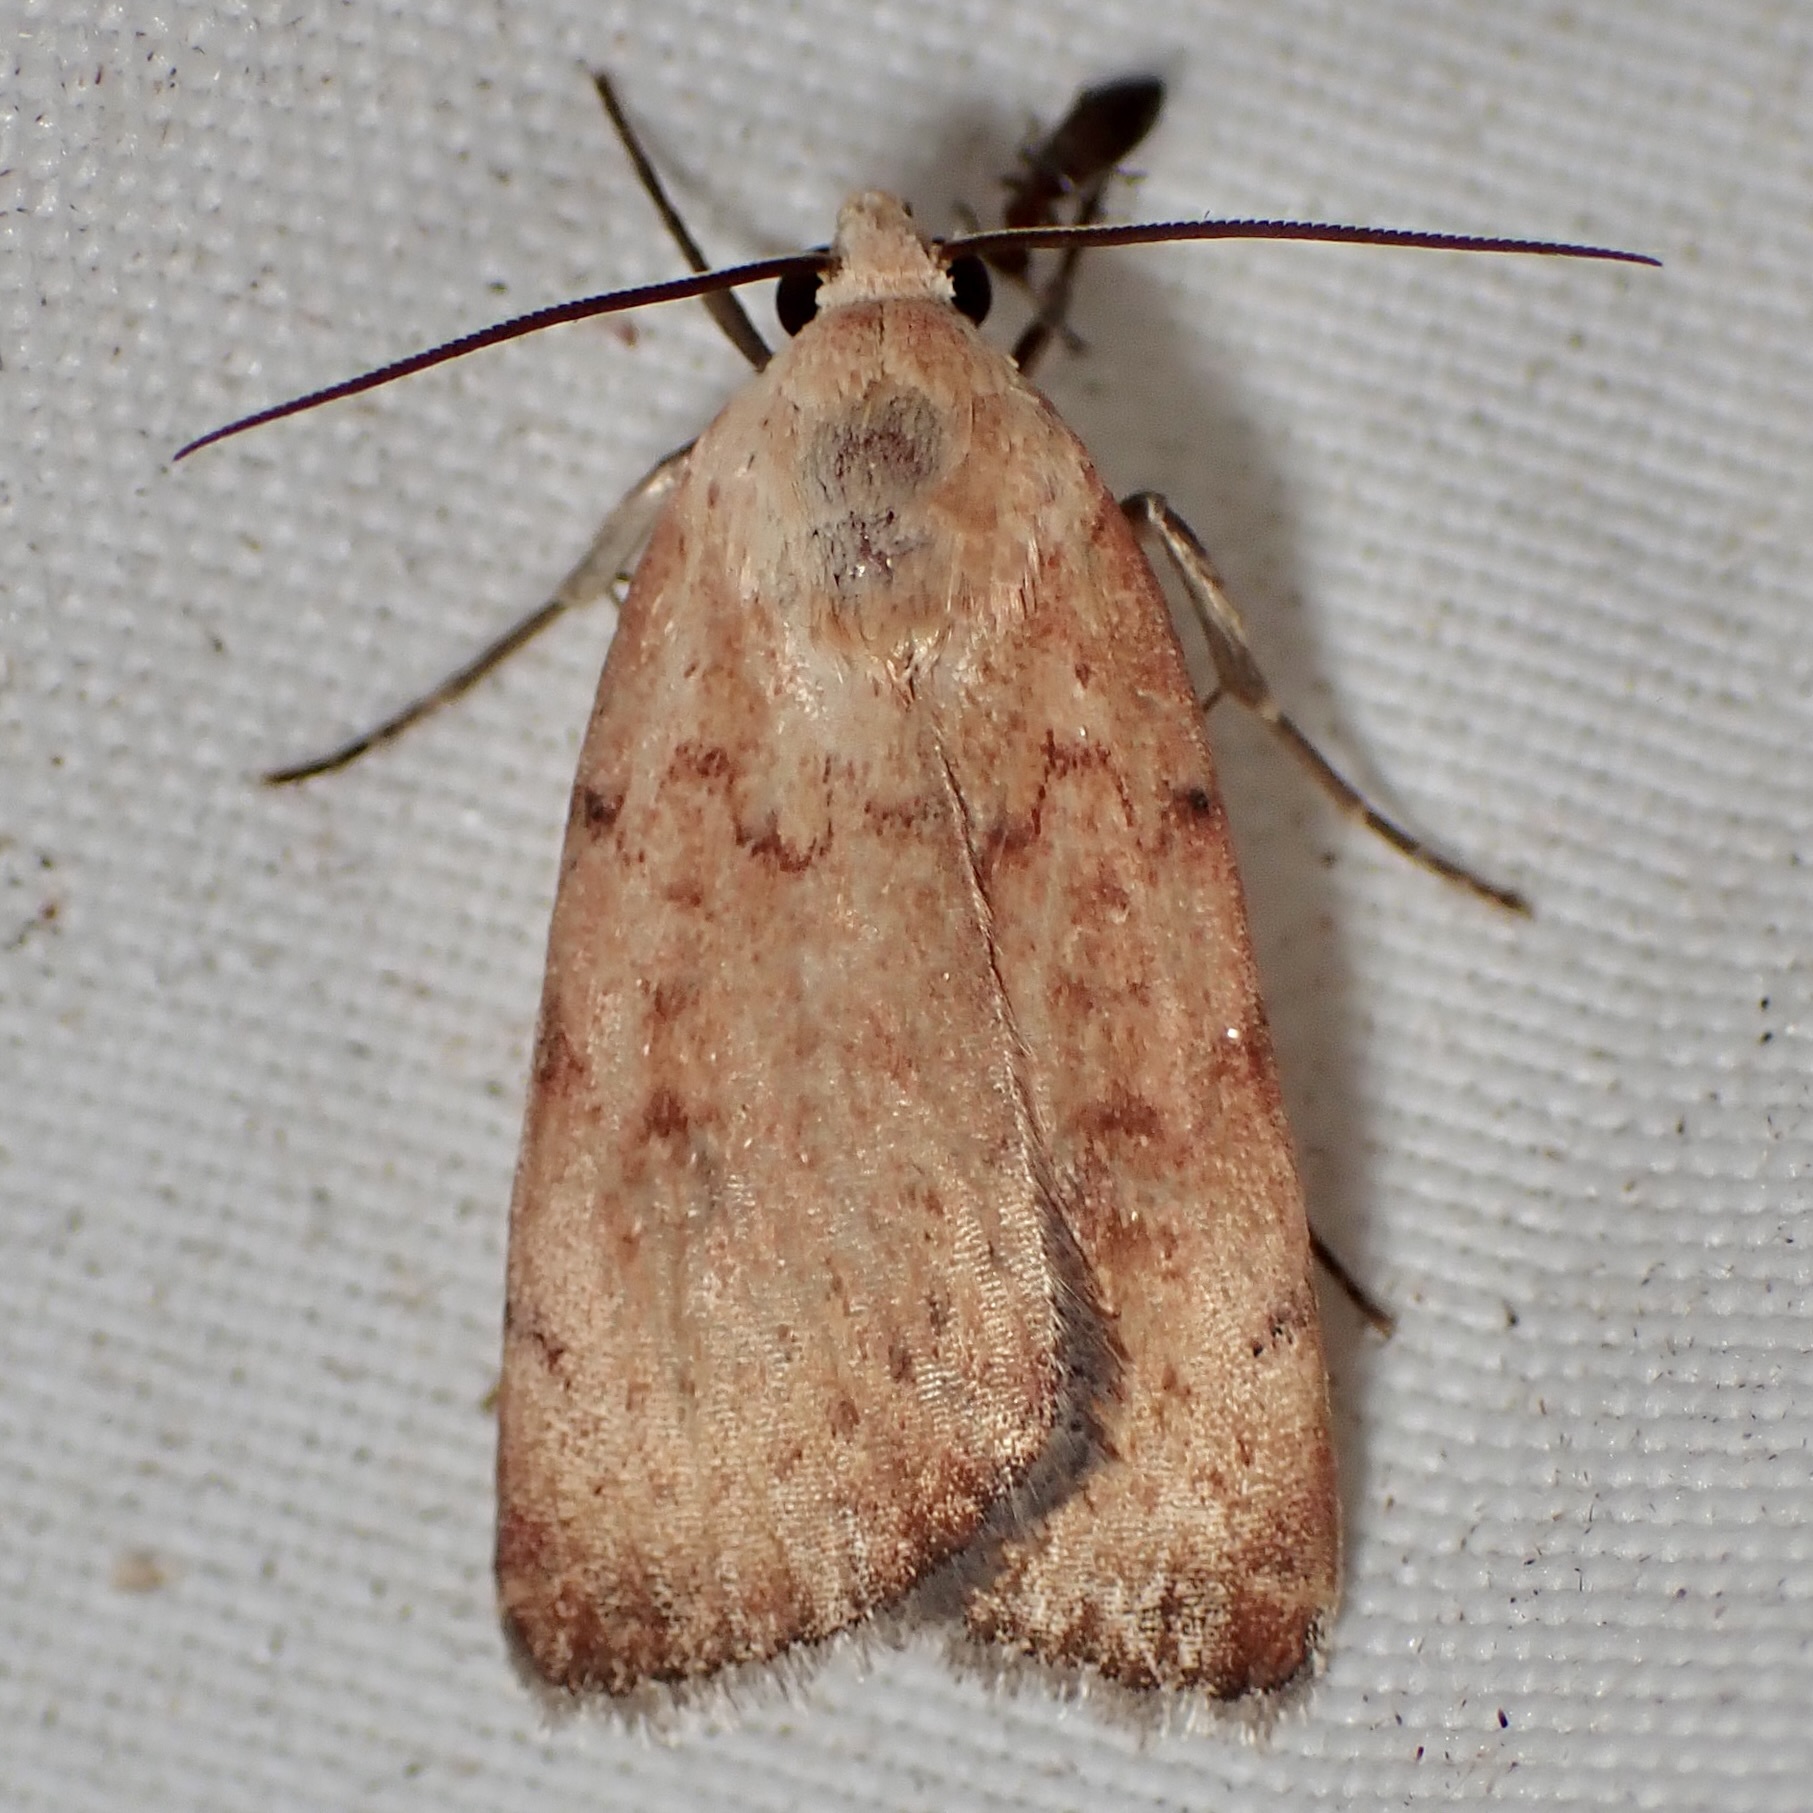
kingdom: Animalia
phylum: Arthropoda
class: Insecta
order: Lepidoptera
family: Noctuidae
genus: Micrathetis
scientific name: Micrathetis triplex
